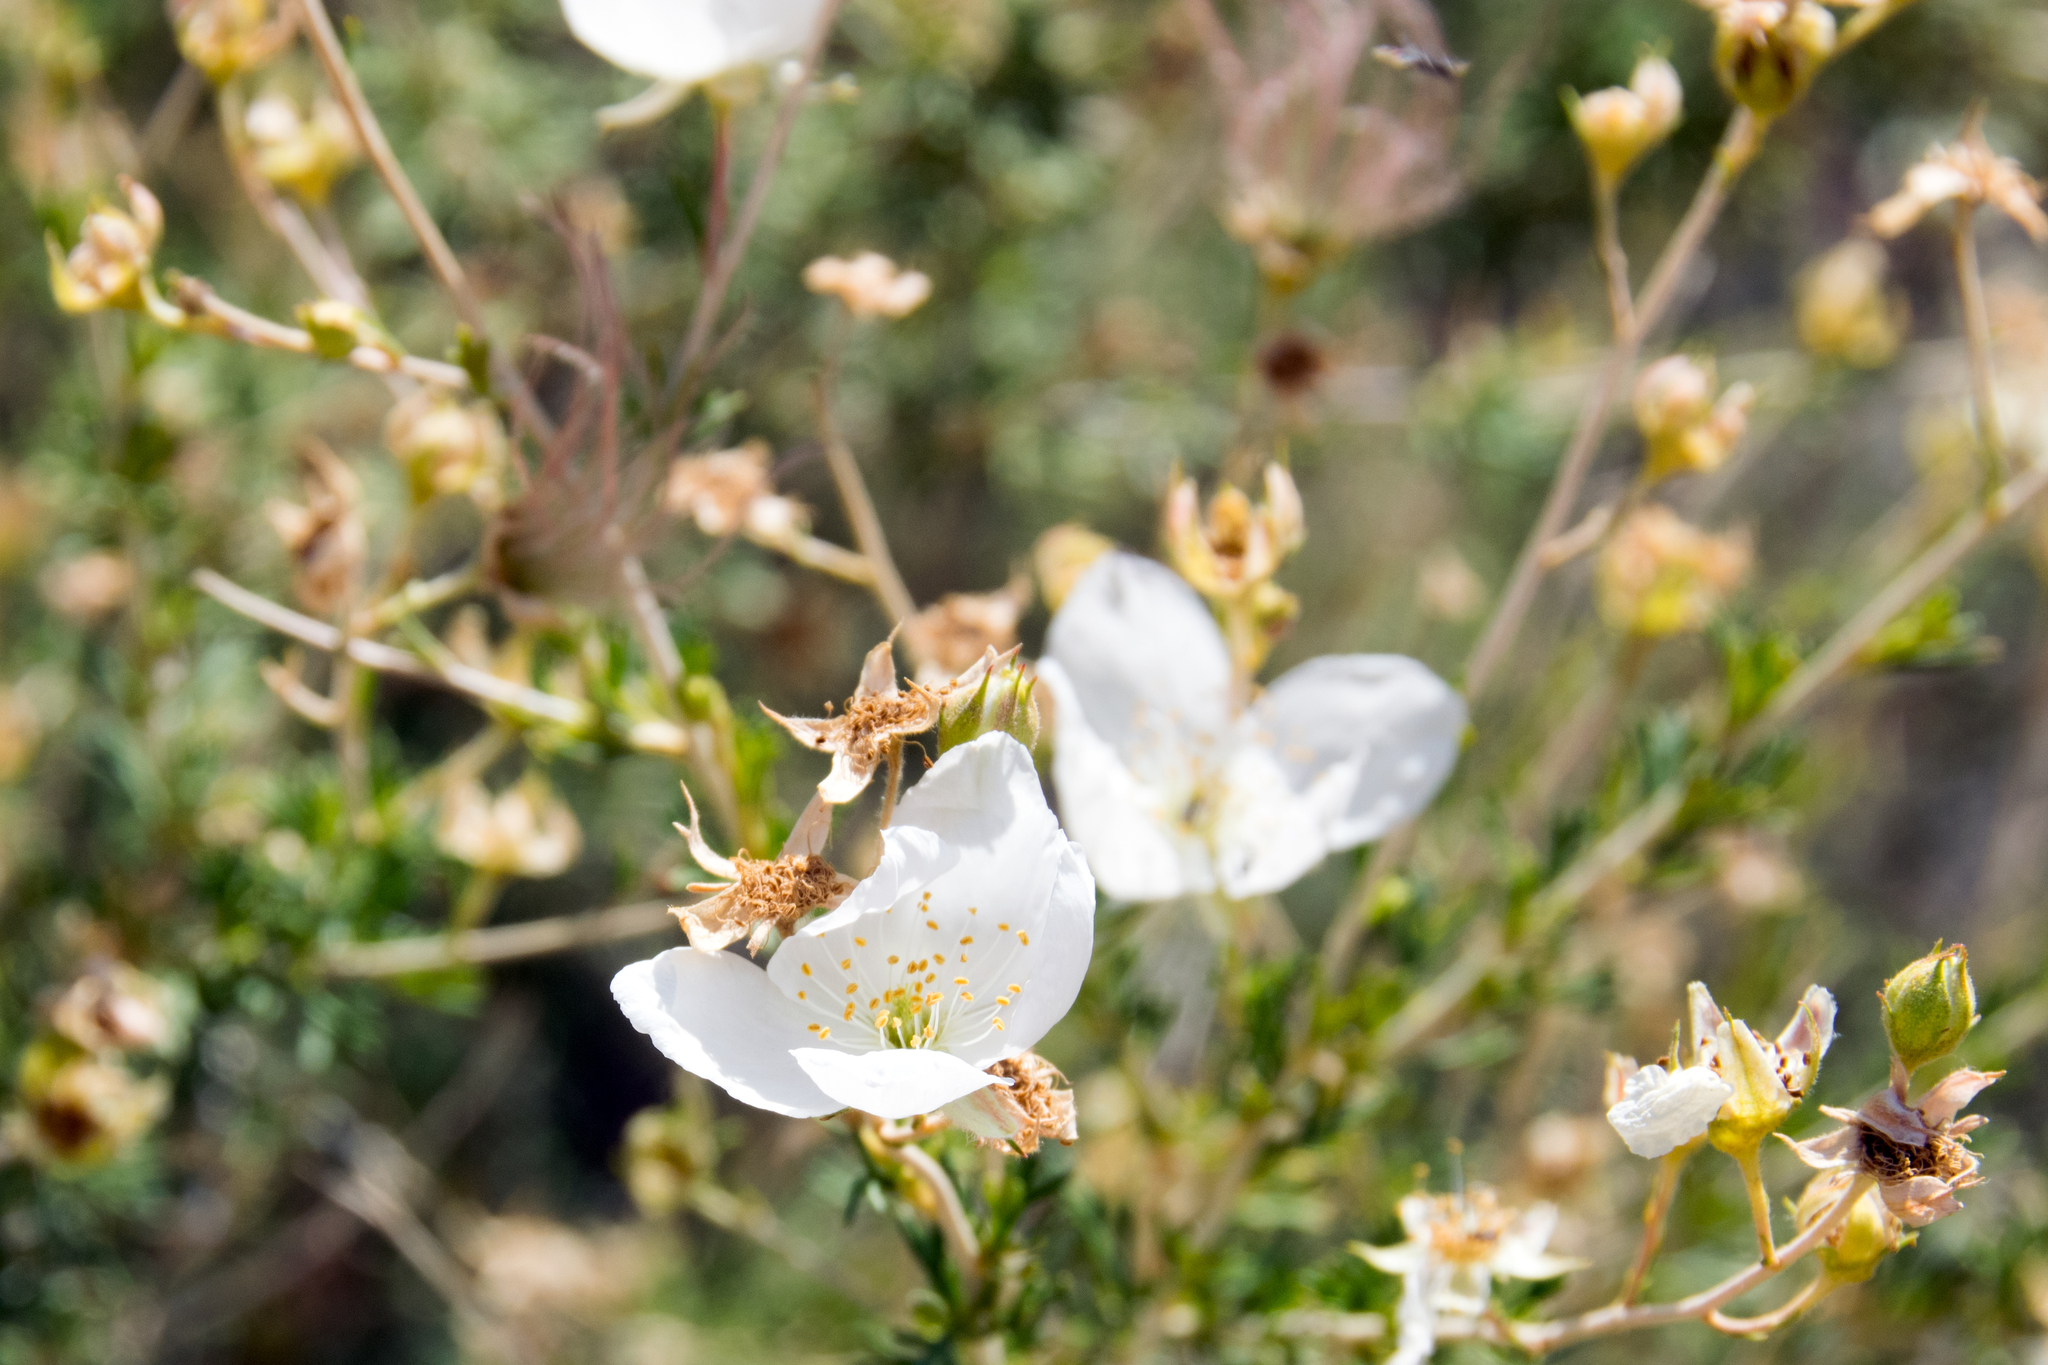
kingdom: Plantae
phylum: Tracheophyta
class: Magnoliopsida
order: Rosales
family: Rosaceae
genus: Fallugia
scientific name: Fallugia paradoxa
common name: Apache-plume
